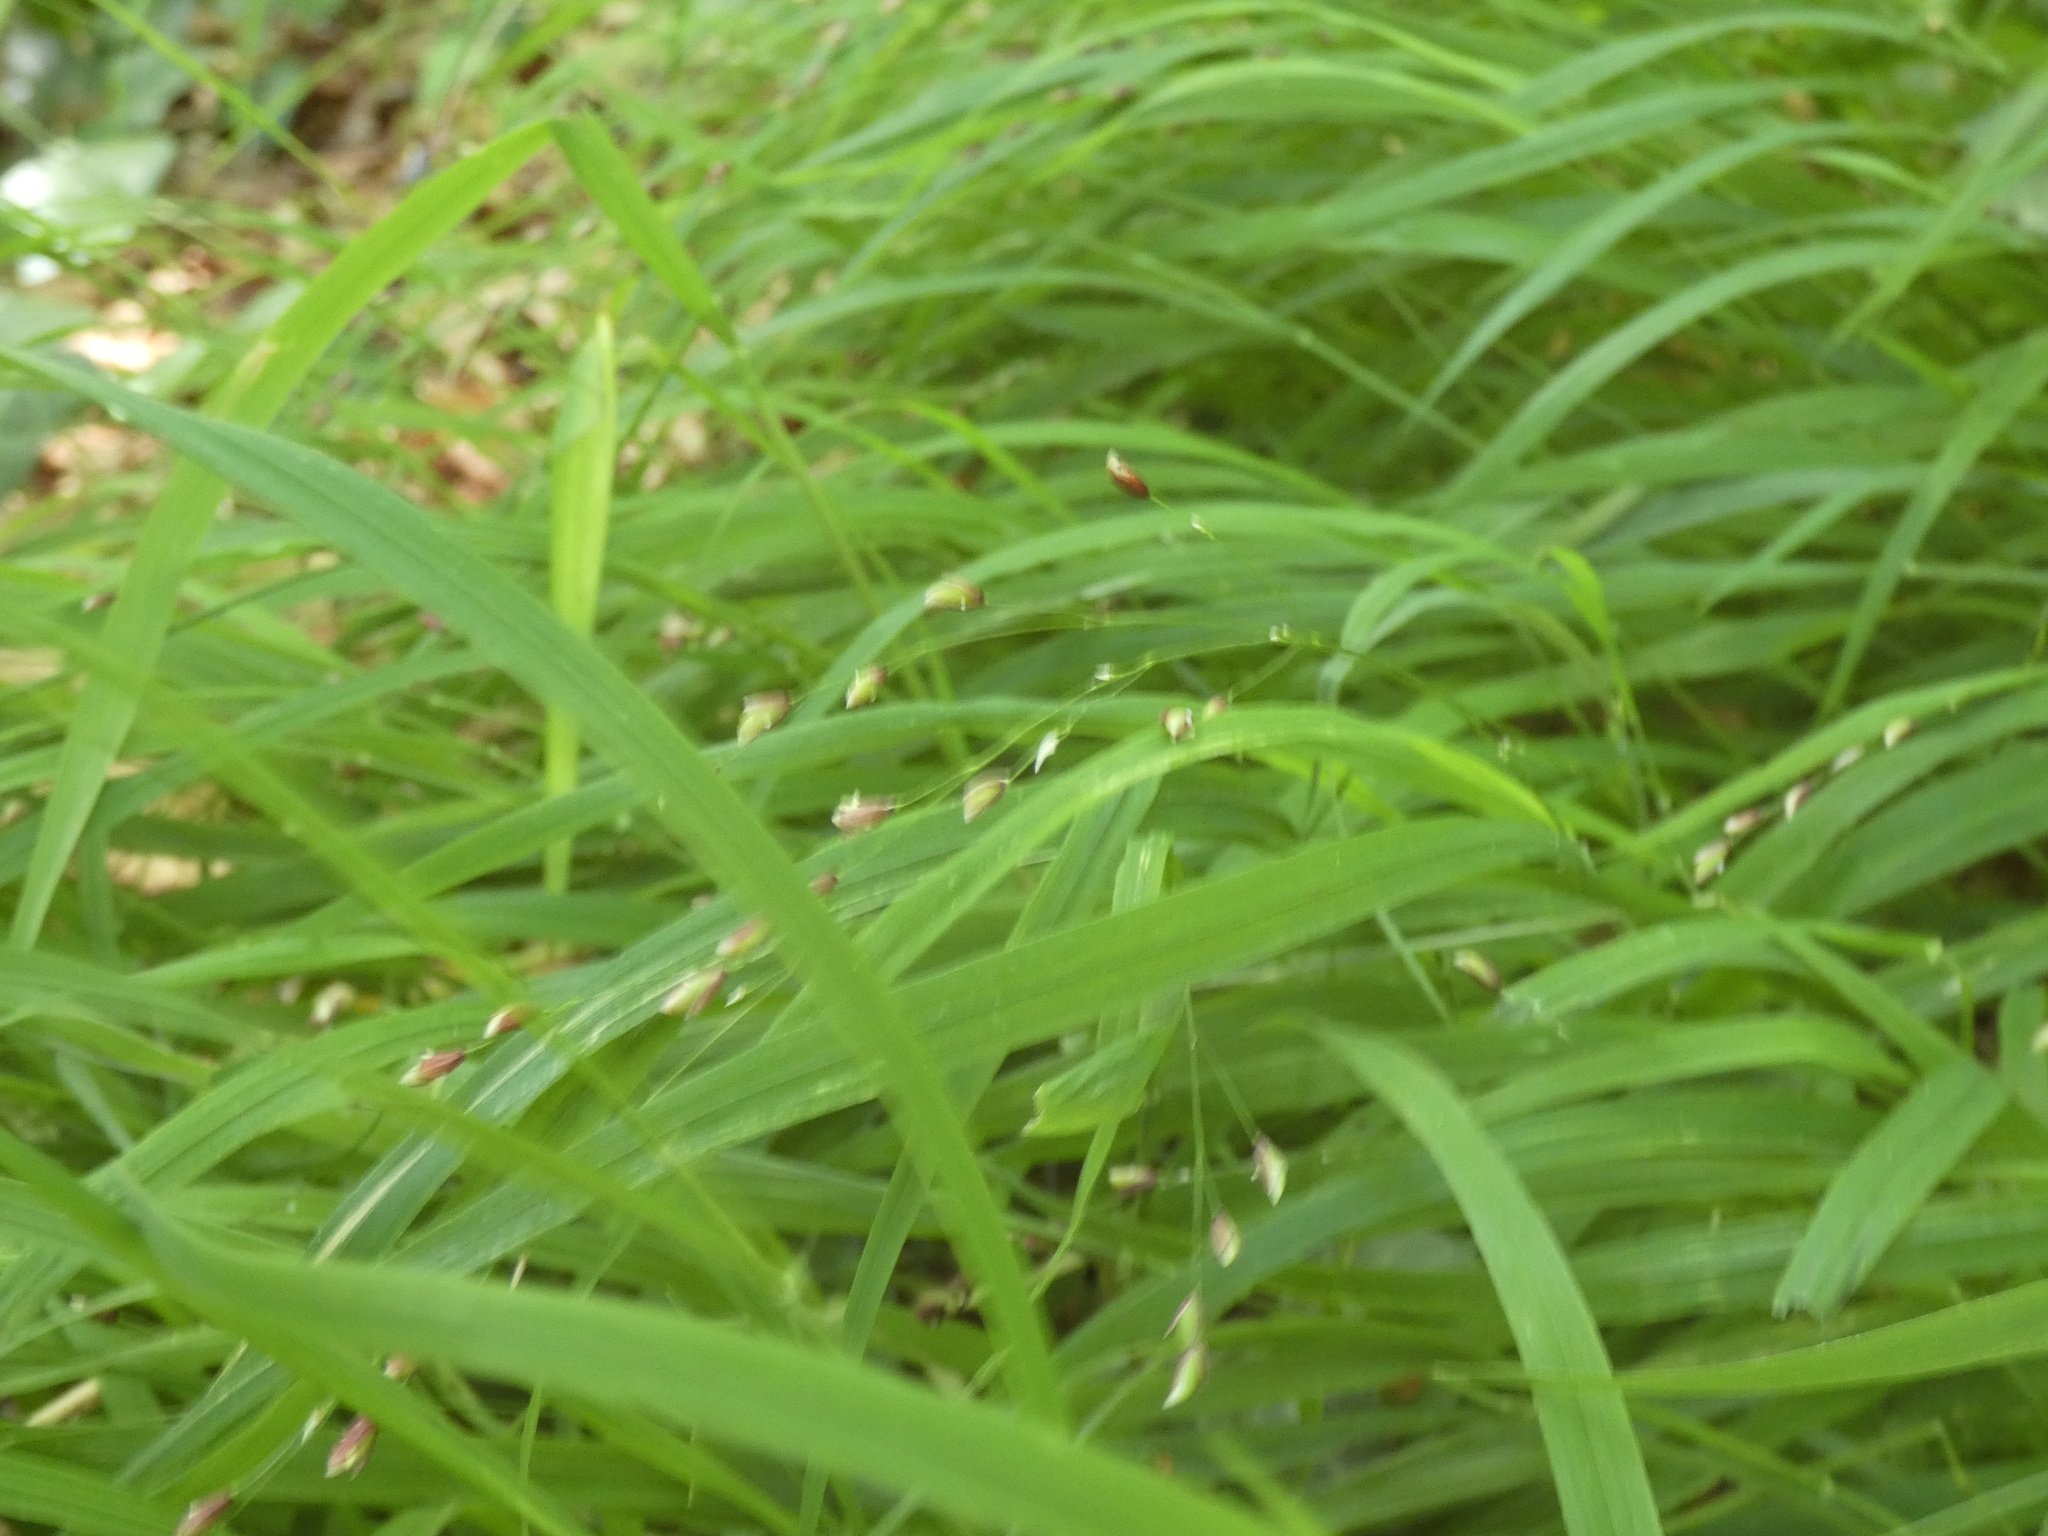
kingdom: Plantae
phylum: Tracheophyta
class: Liliopsida
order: Poales
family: Poaceae
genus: Melica
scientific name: Melica uniflora
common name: Wood melick
